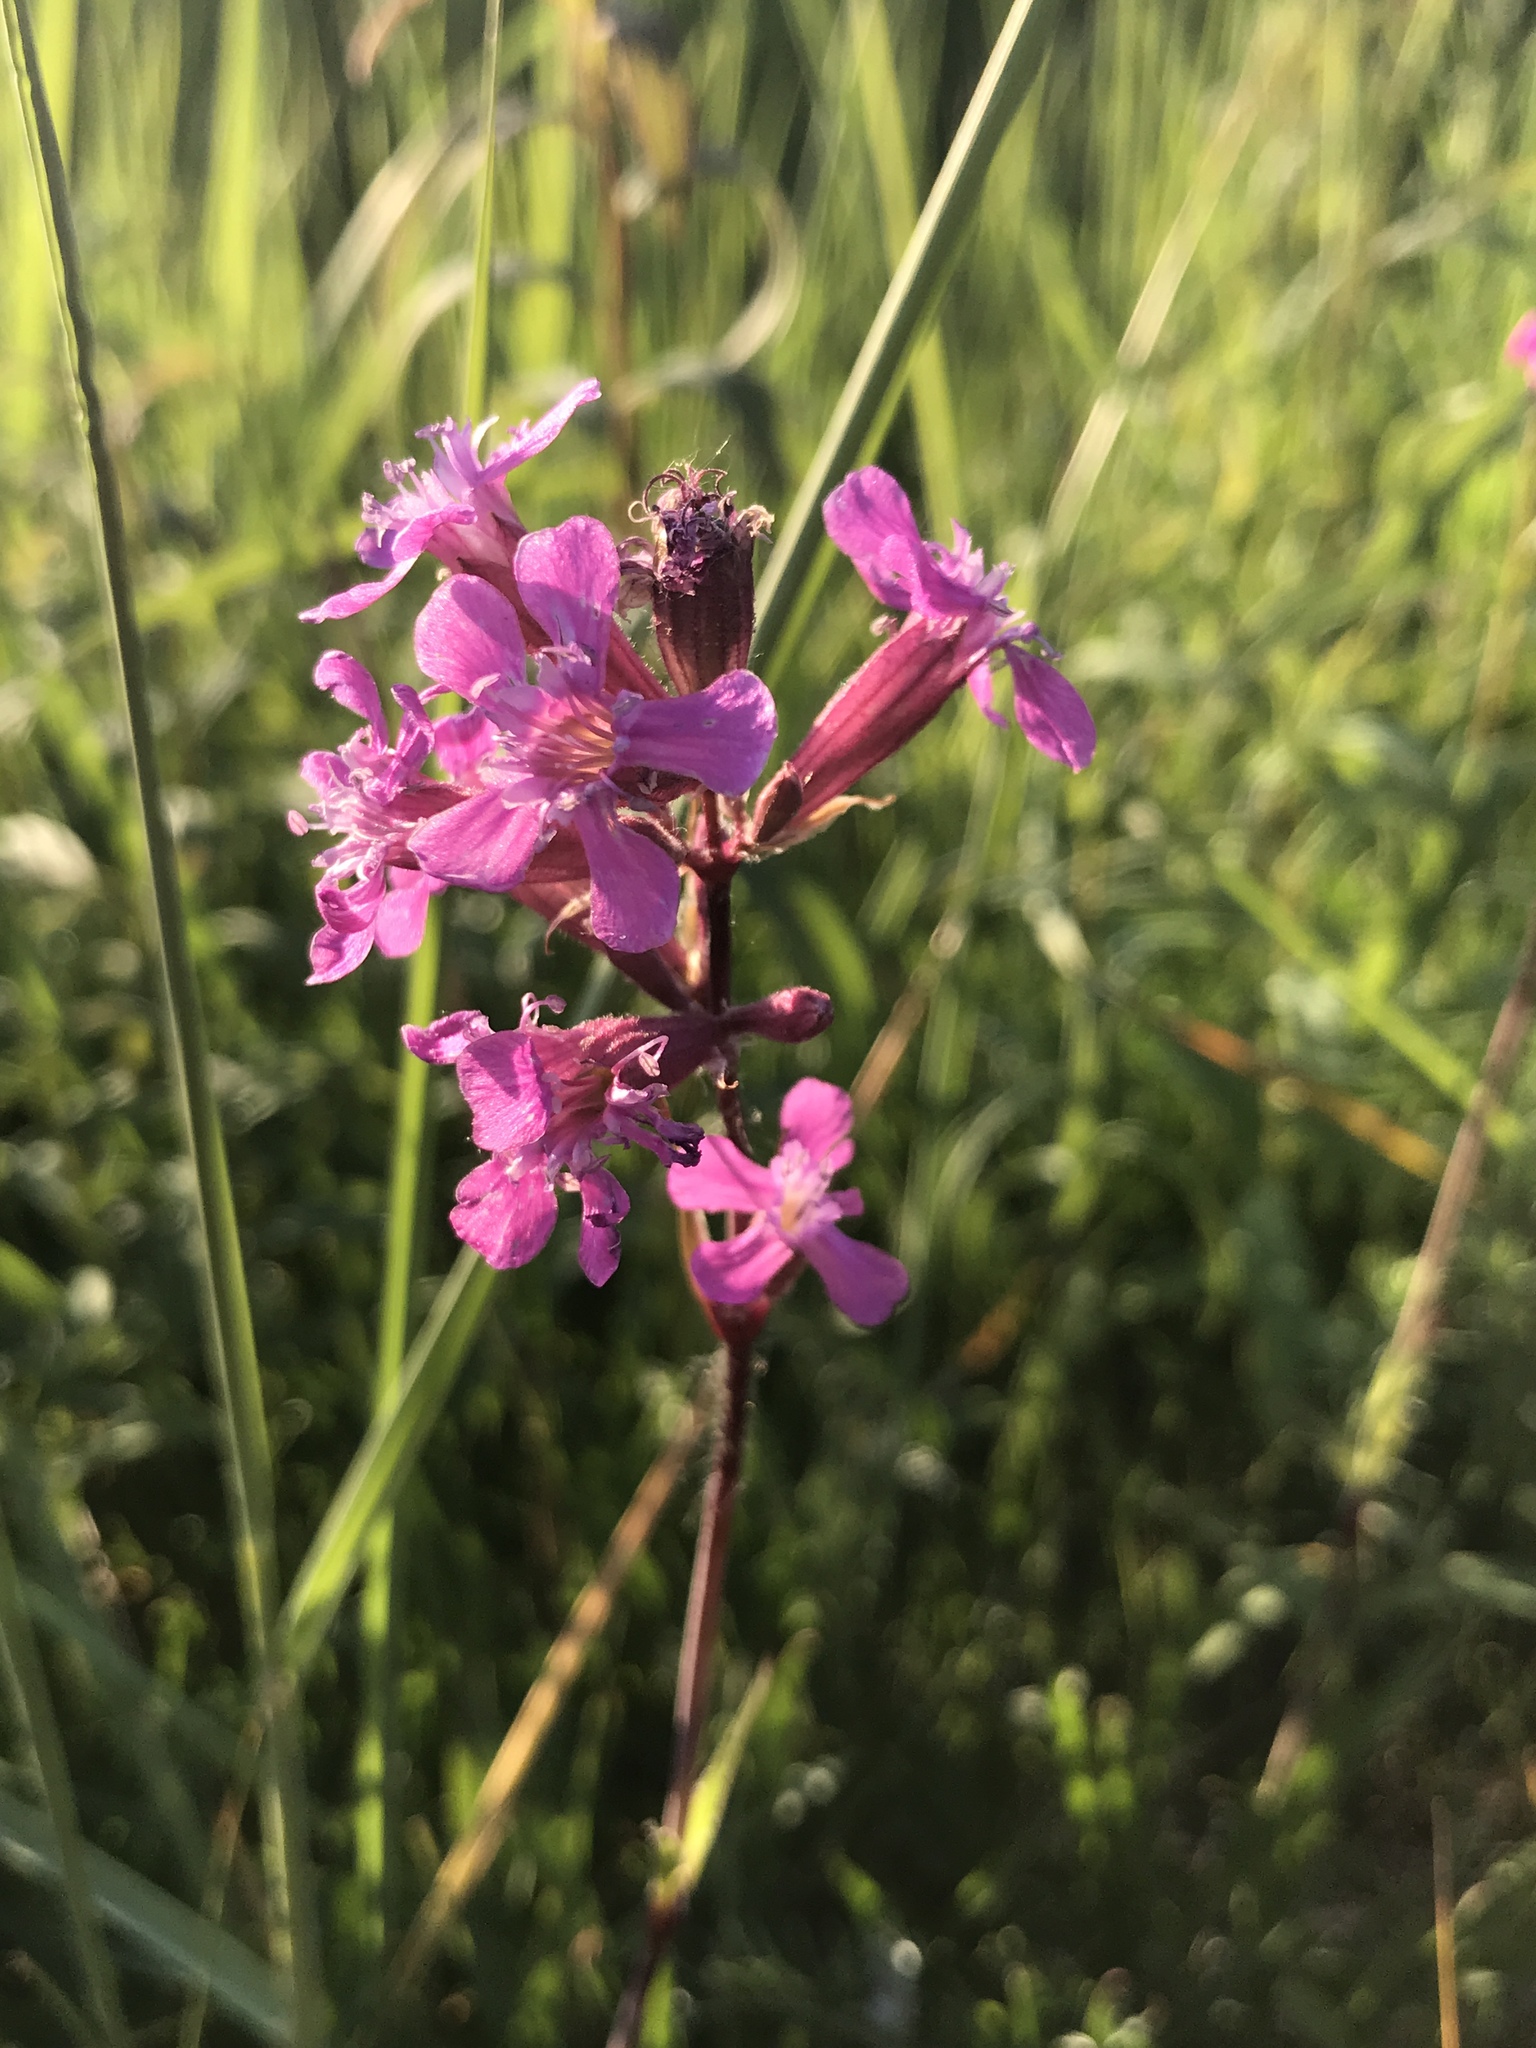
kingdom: Plantae
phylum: Tracheophyta
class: Magnoliopsida
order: Caryophyllales
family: Caryophyllaceae
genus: Viscaria
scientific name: Viscaria vulgaris
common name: Clammy campion
